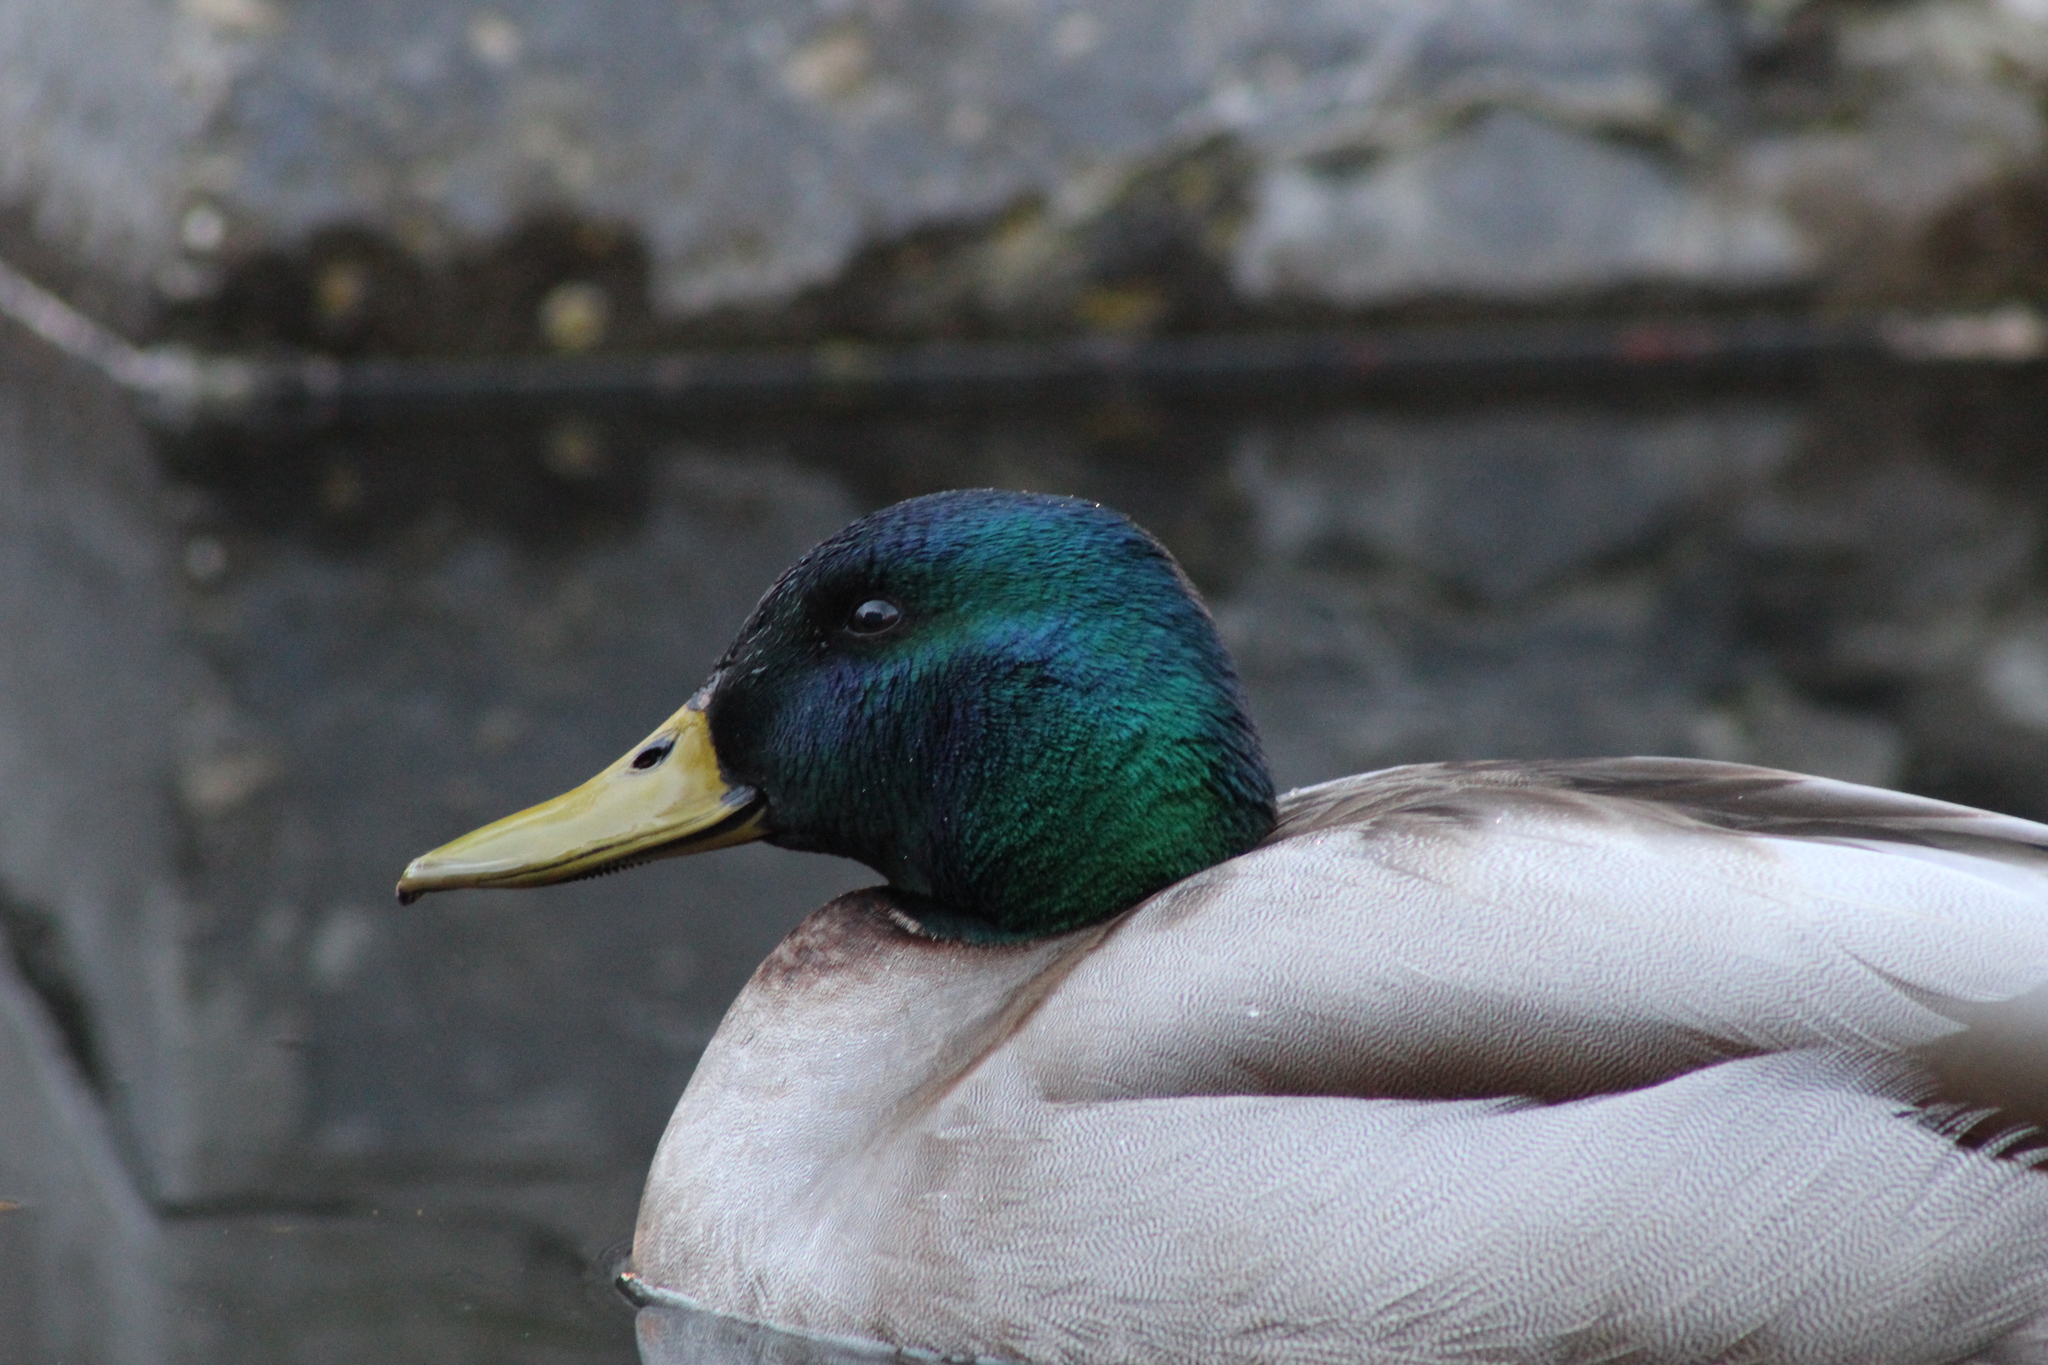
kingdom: Animalia
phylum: Chordata
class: Aves
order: Anseriformes
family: Anatidae
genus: Anas
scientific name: Anas platyrhynchos
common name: Mallard
